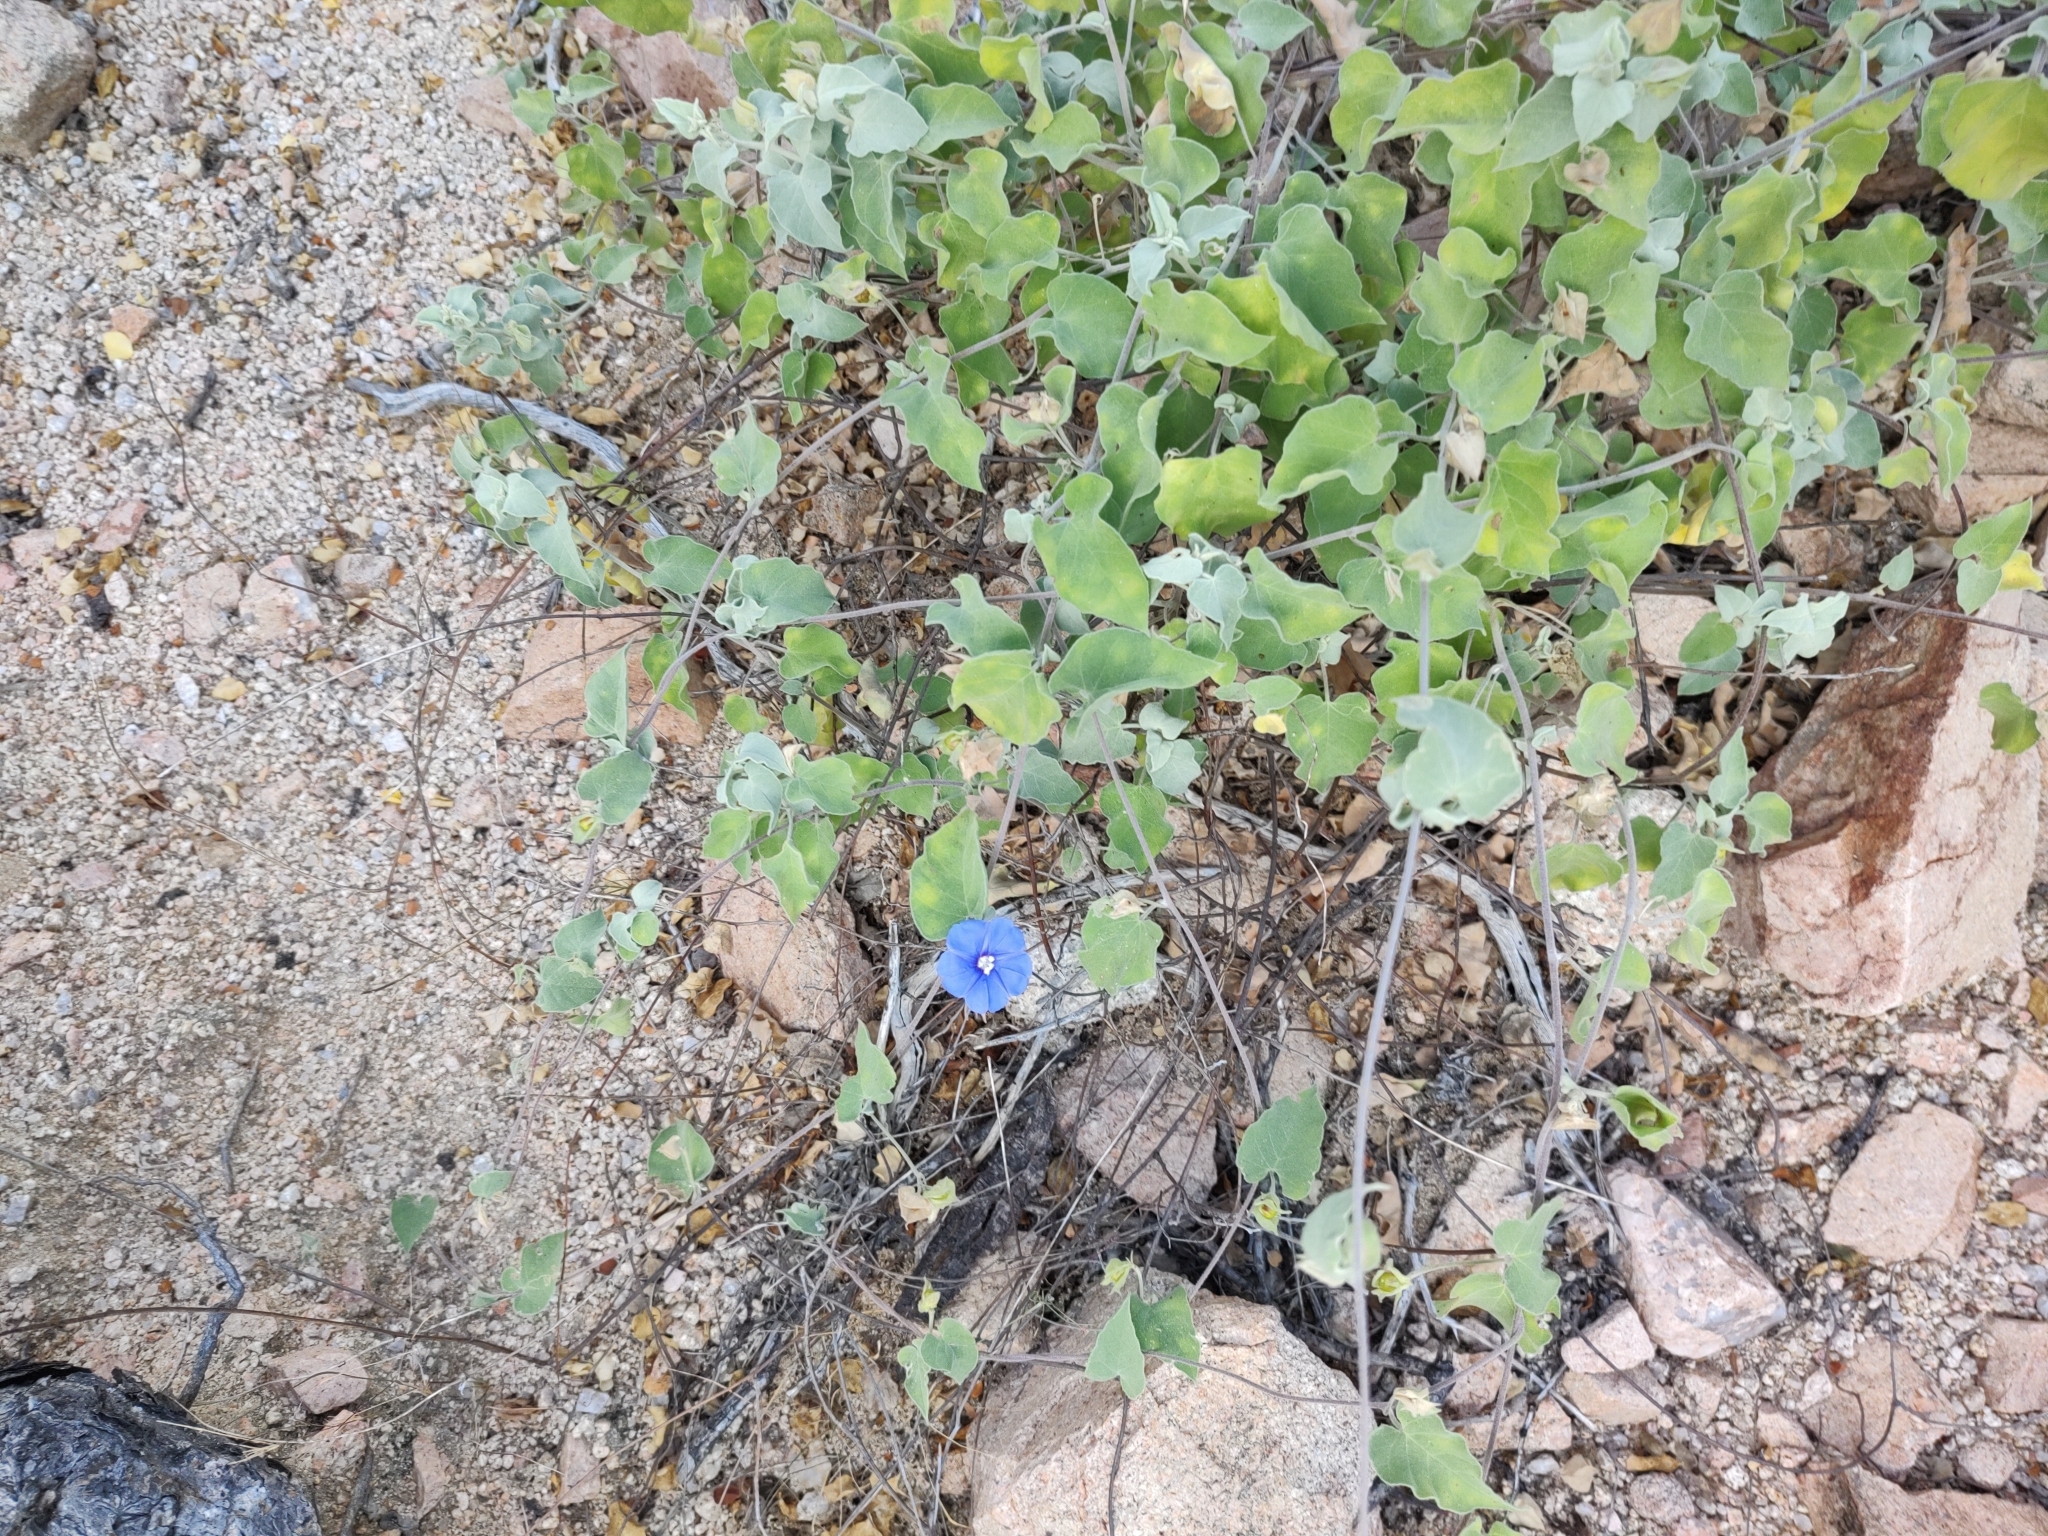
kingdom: Plantae
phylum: Tracheophyta
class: Magnoliopsida
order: Solanales
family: Convolvulaceae
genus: Jacquemontia
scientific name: Jacquemontia abutiloides
